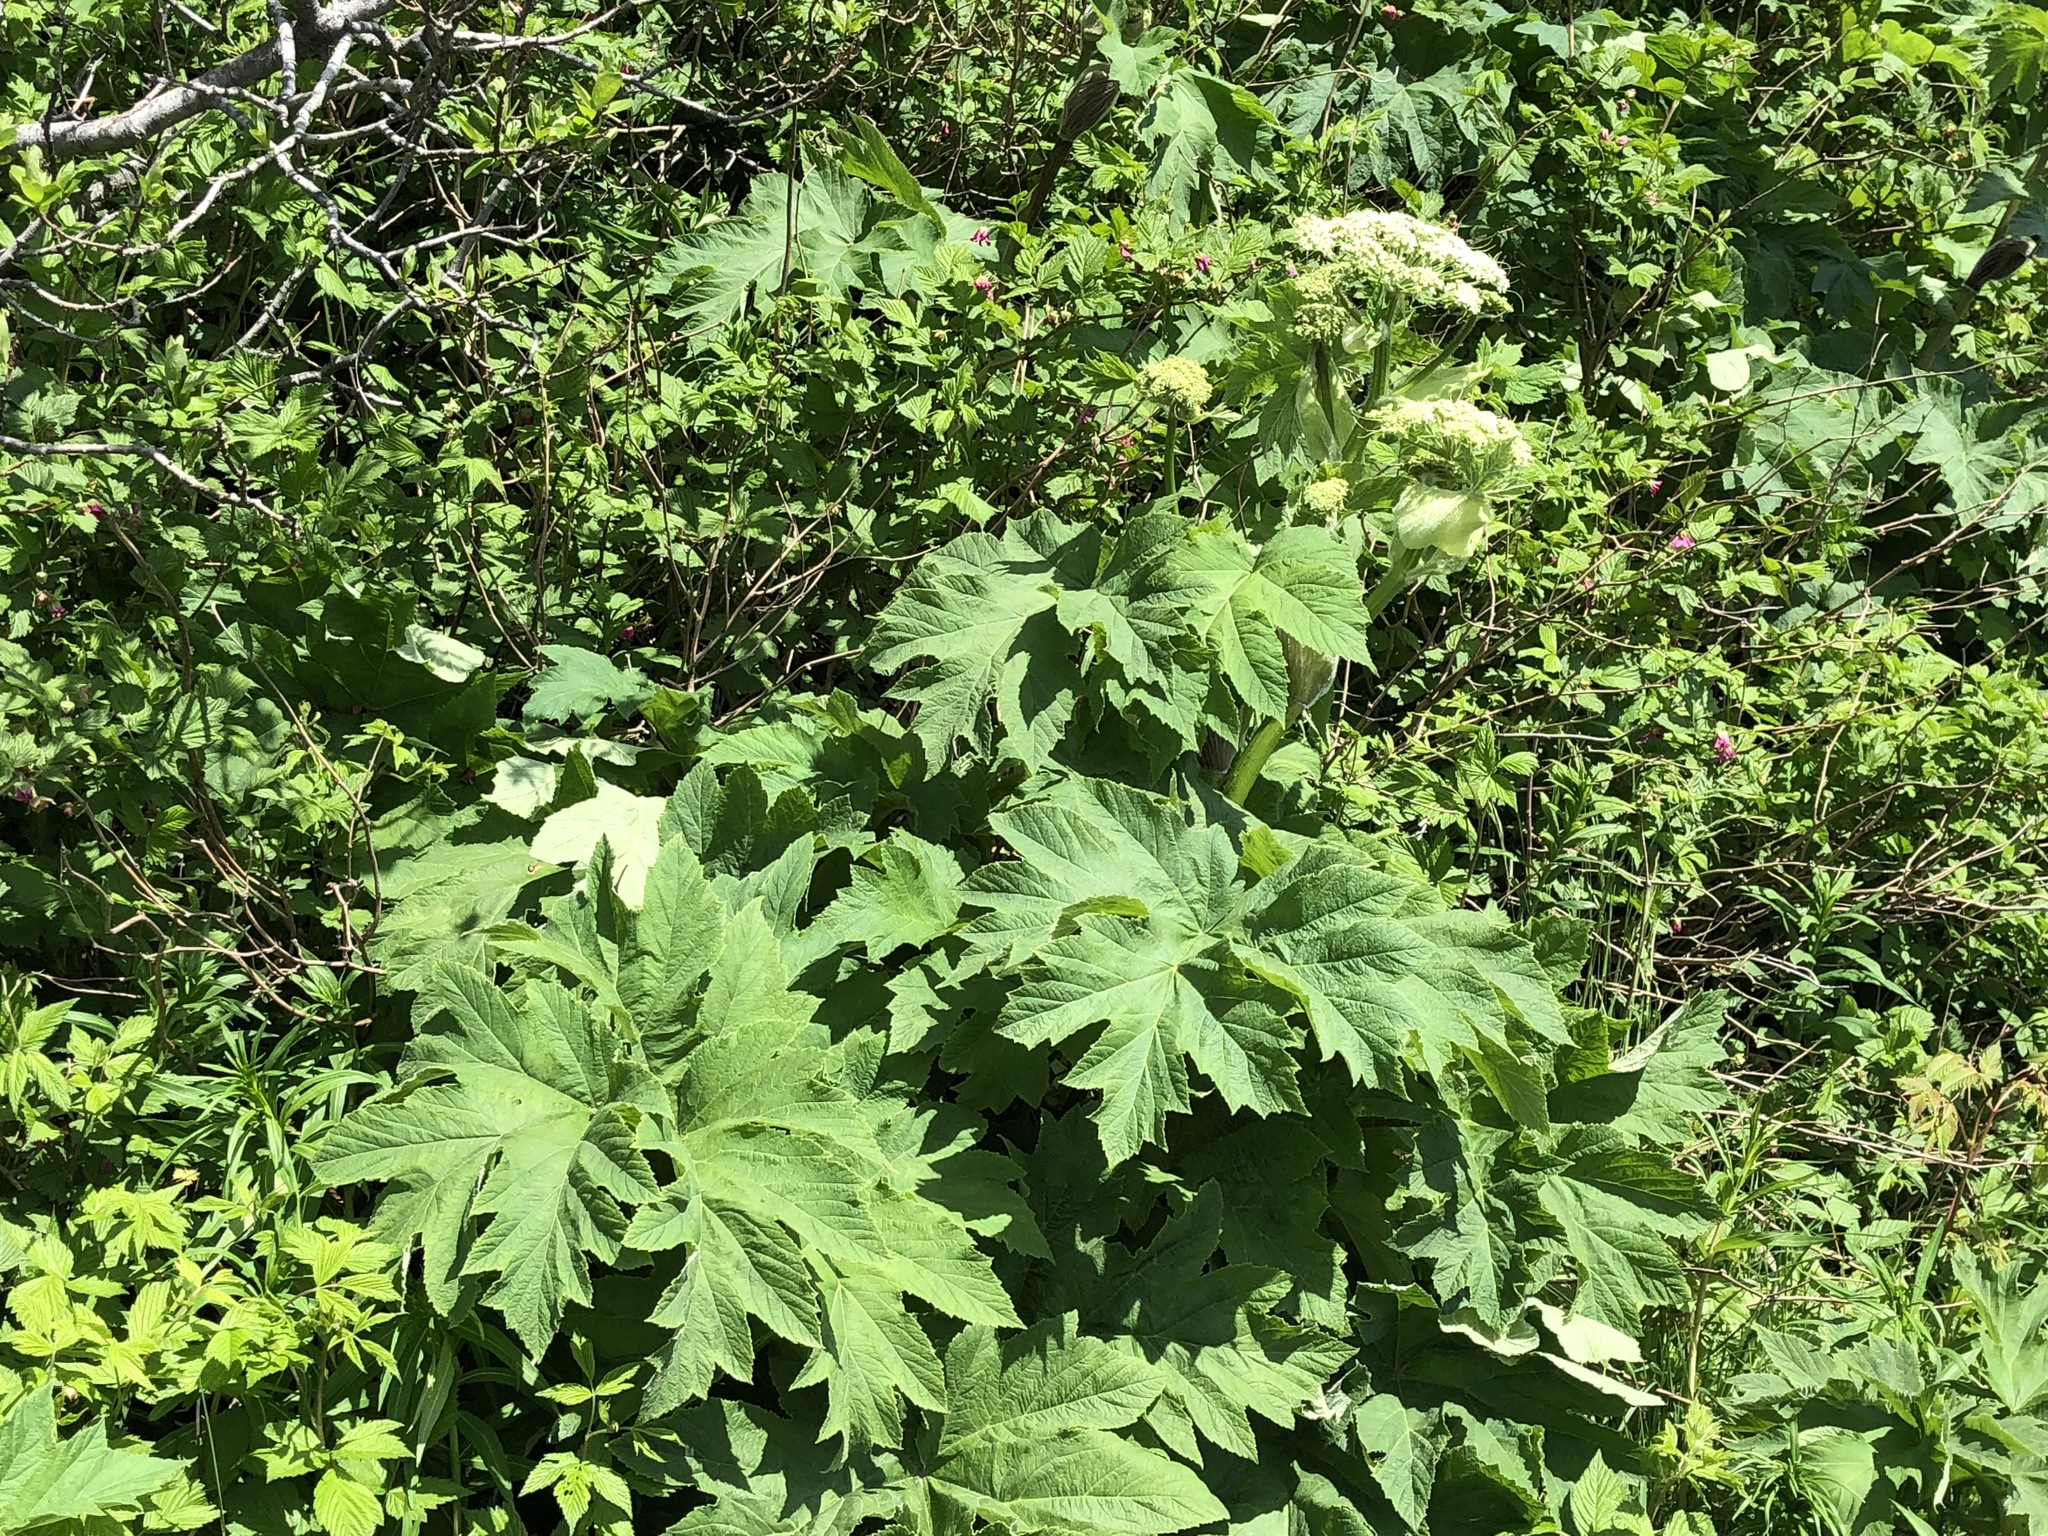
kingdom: Plantae
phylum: Tracheophyta
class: Magnoliopsida
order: Apiales
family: Apiaceae
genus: Heracleum
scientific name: Heracleum maximum
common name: American cow parsnip
